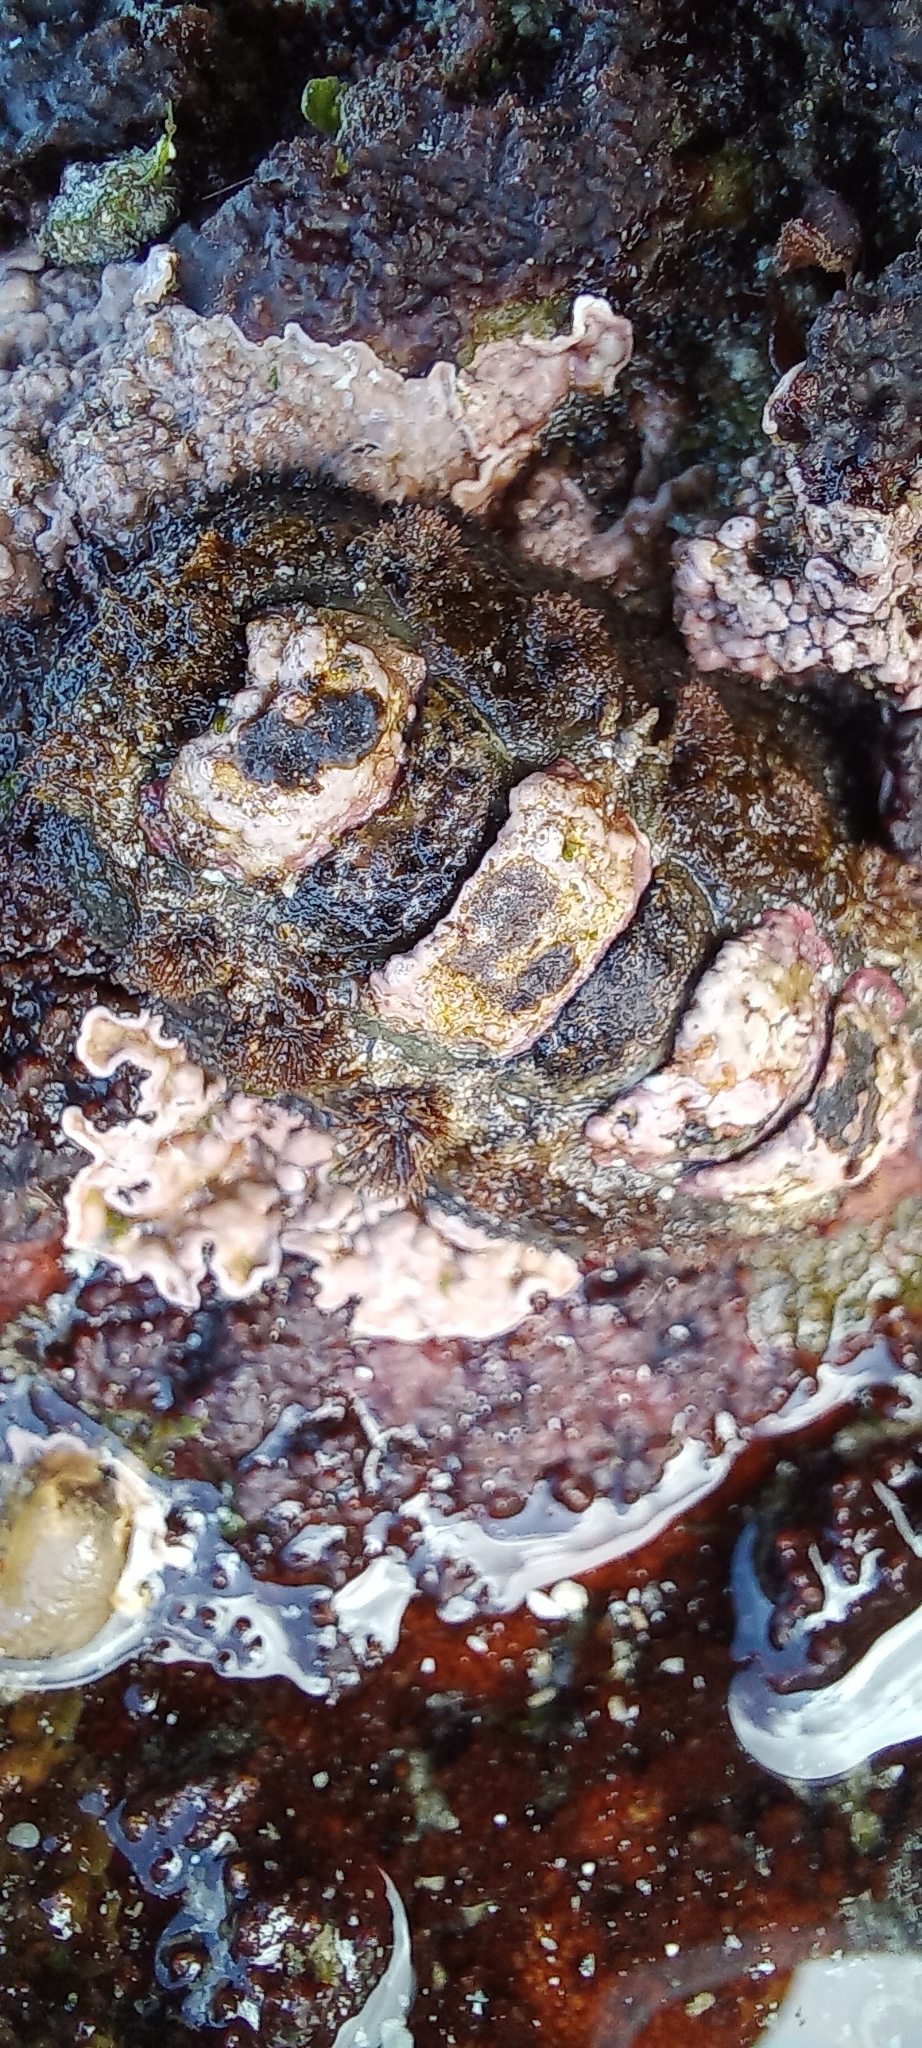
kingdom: Animalia
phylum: Mollusca
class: Polyplacophora
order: Chitonida
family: Acanthochitonidae
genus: Acanthochitona
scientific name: Acanthochitona garnoti
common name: Spiny chiton
